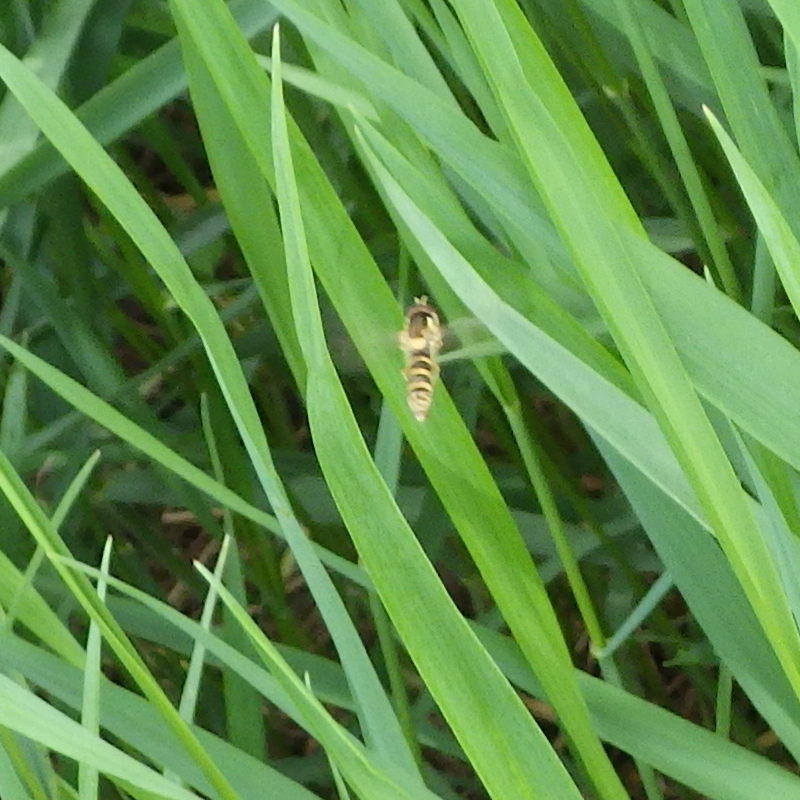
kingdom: Animalia
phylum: Arthropoda
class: Insecta
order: Diptera
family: Syrphidae
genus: Sphaerophoria
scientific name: Sphaerophoria
